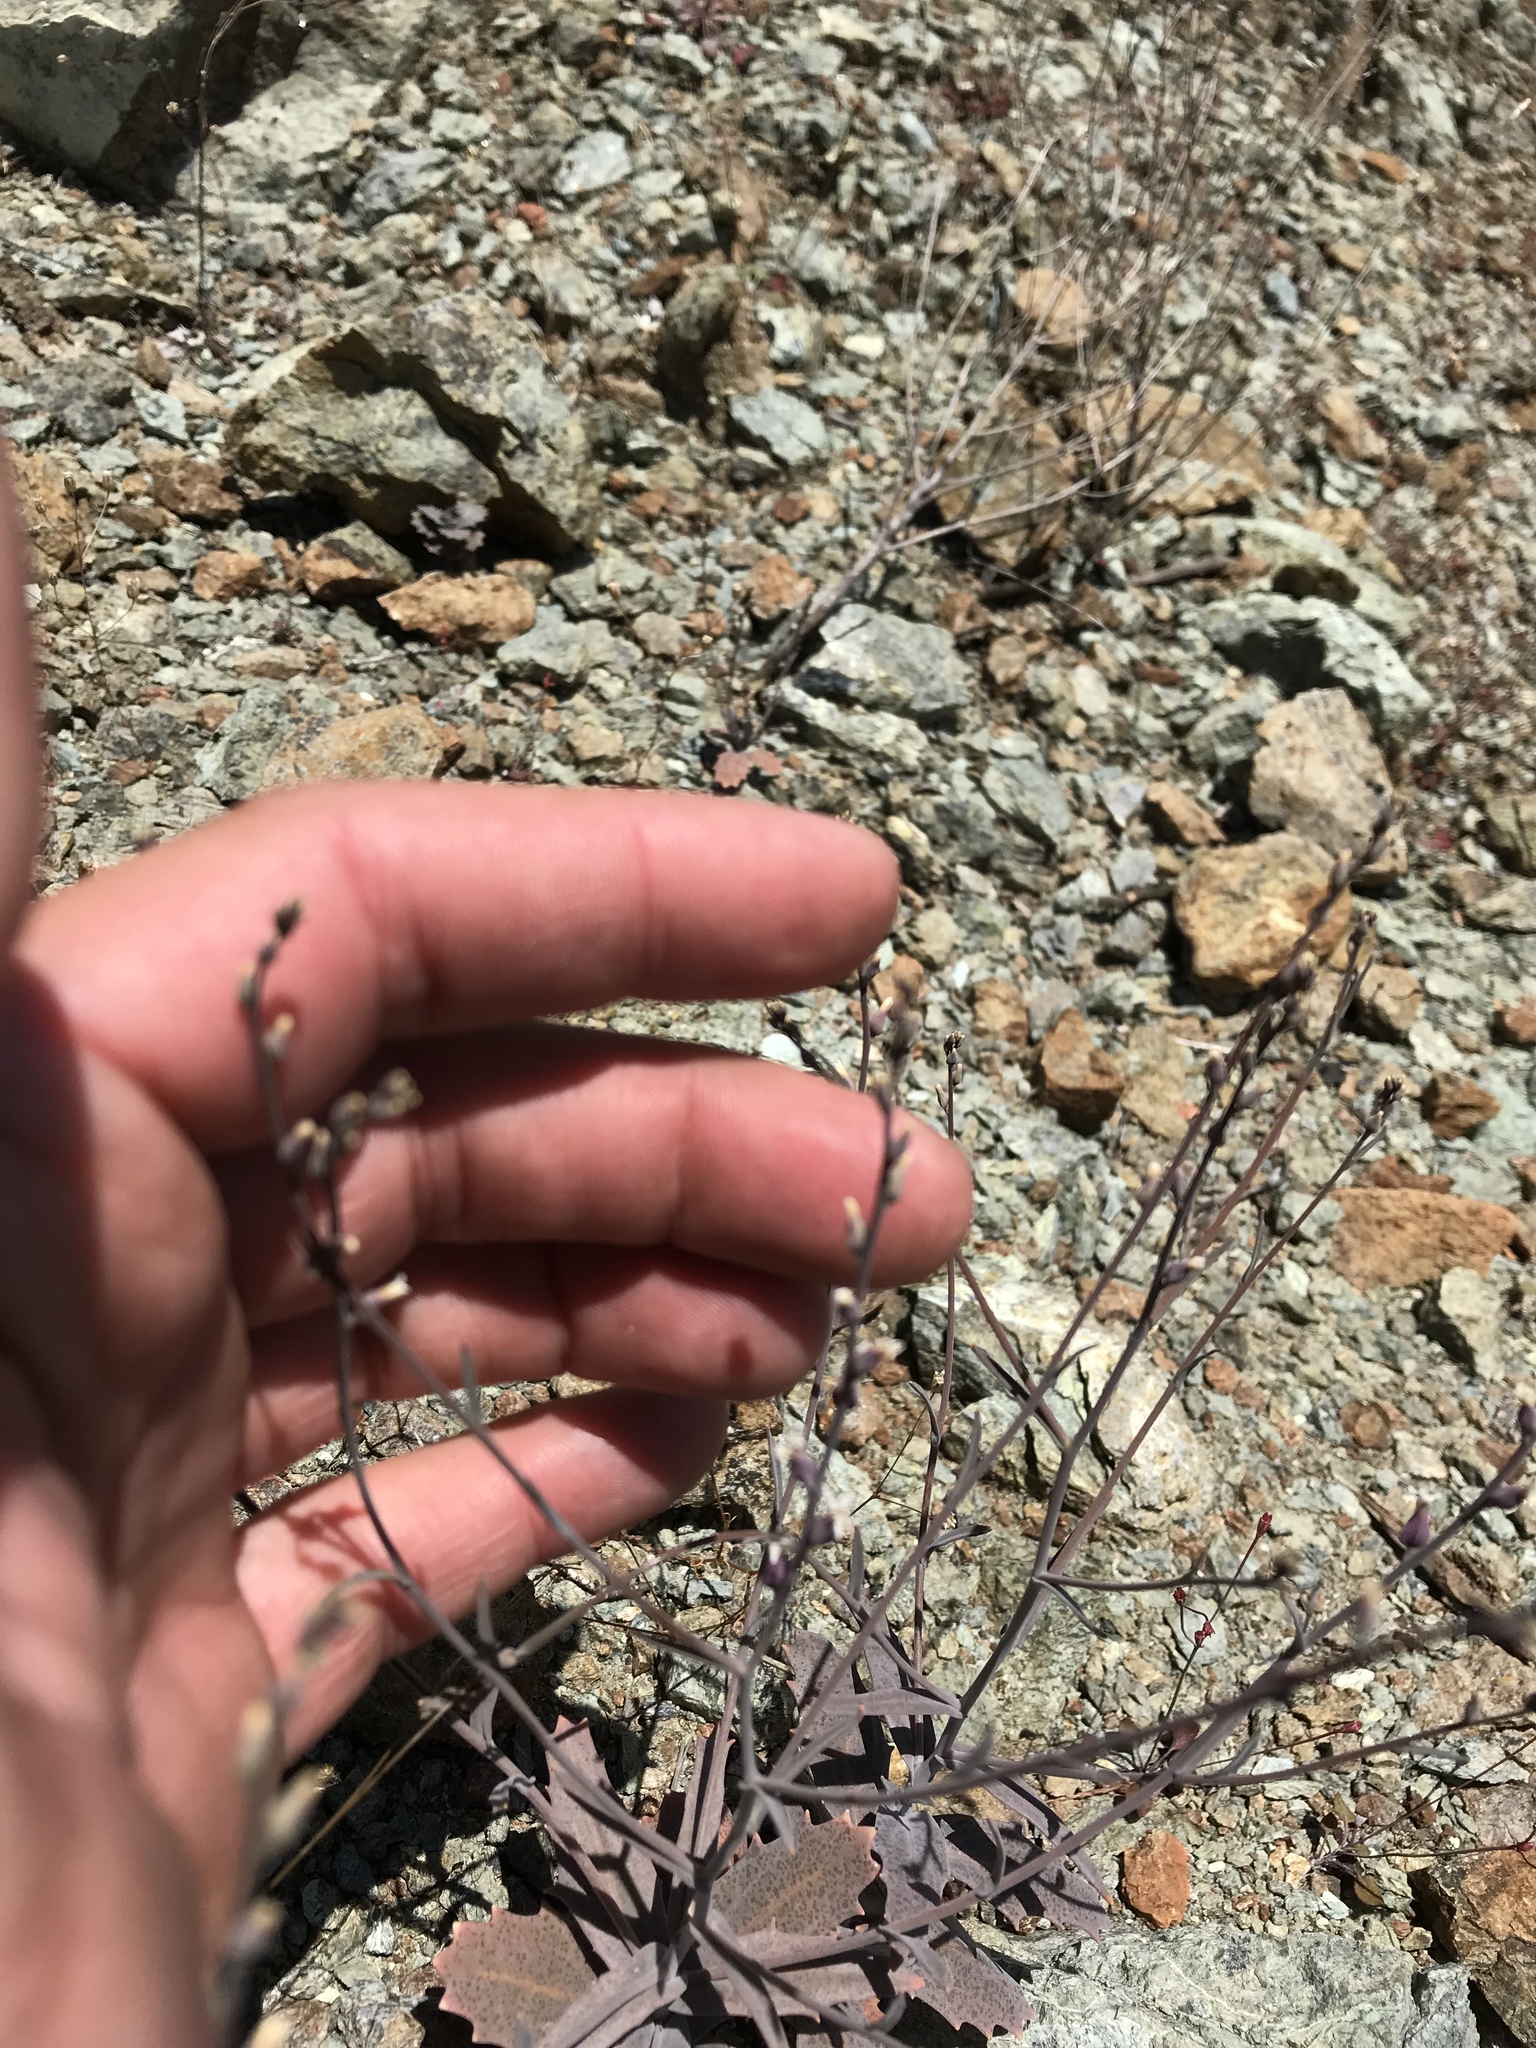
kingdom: Plantae
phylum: Tracheophyta
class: Magnoliopsida
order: Brassicales
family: Brassicaceae
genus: Streptanthus
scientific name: Streptanthus batrachopus
